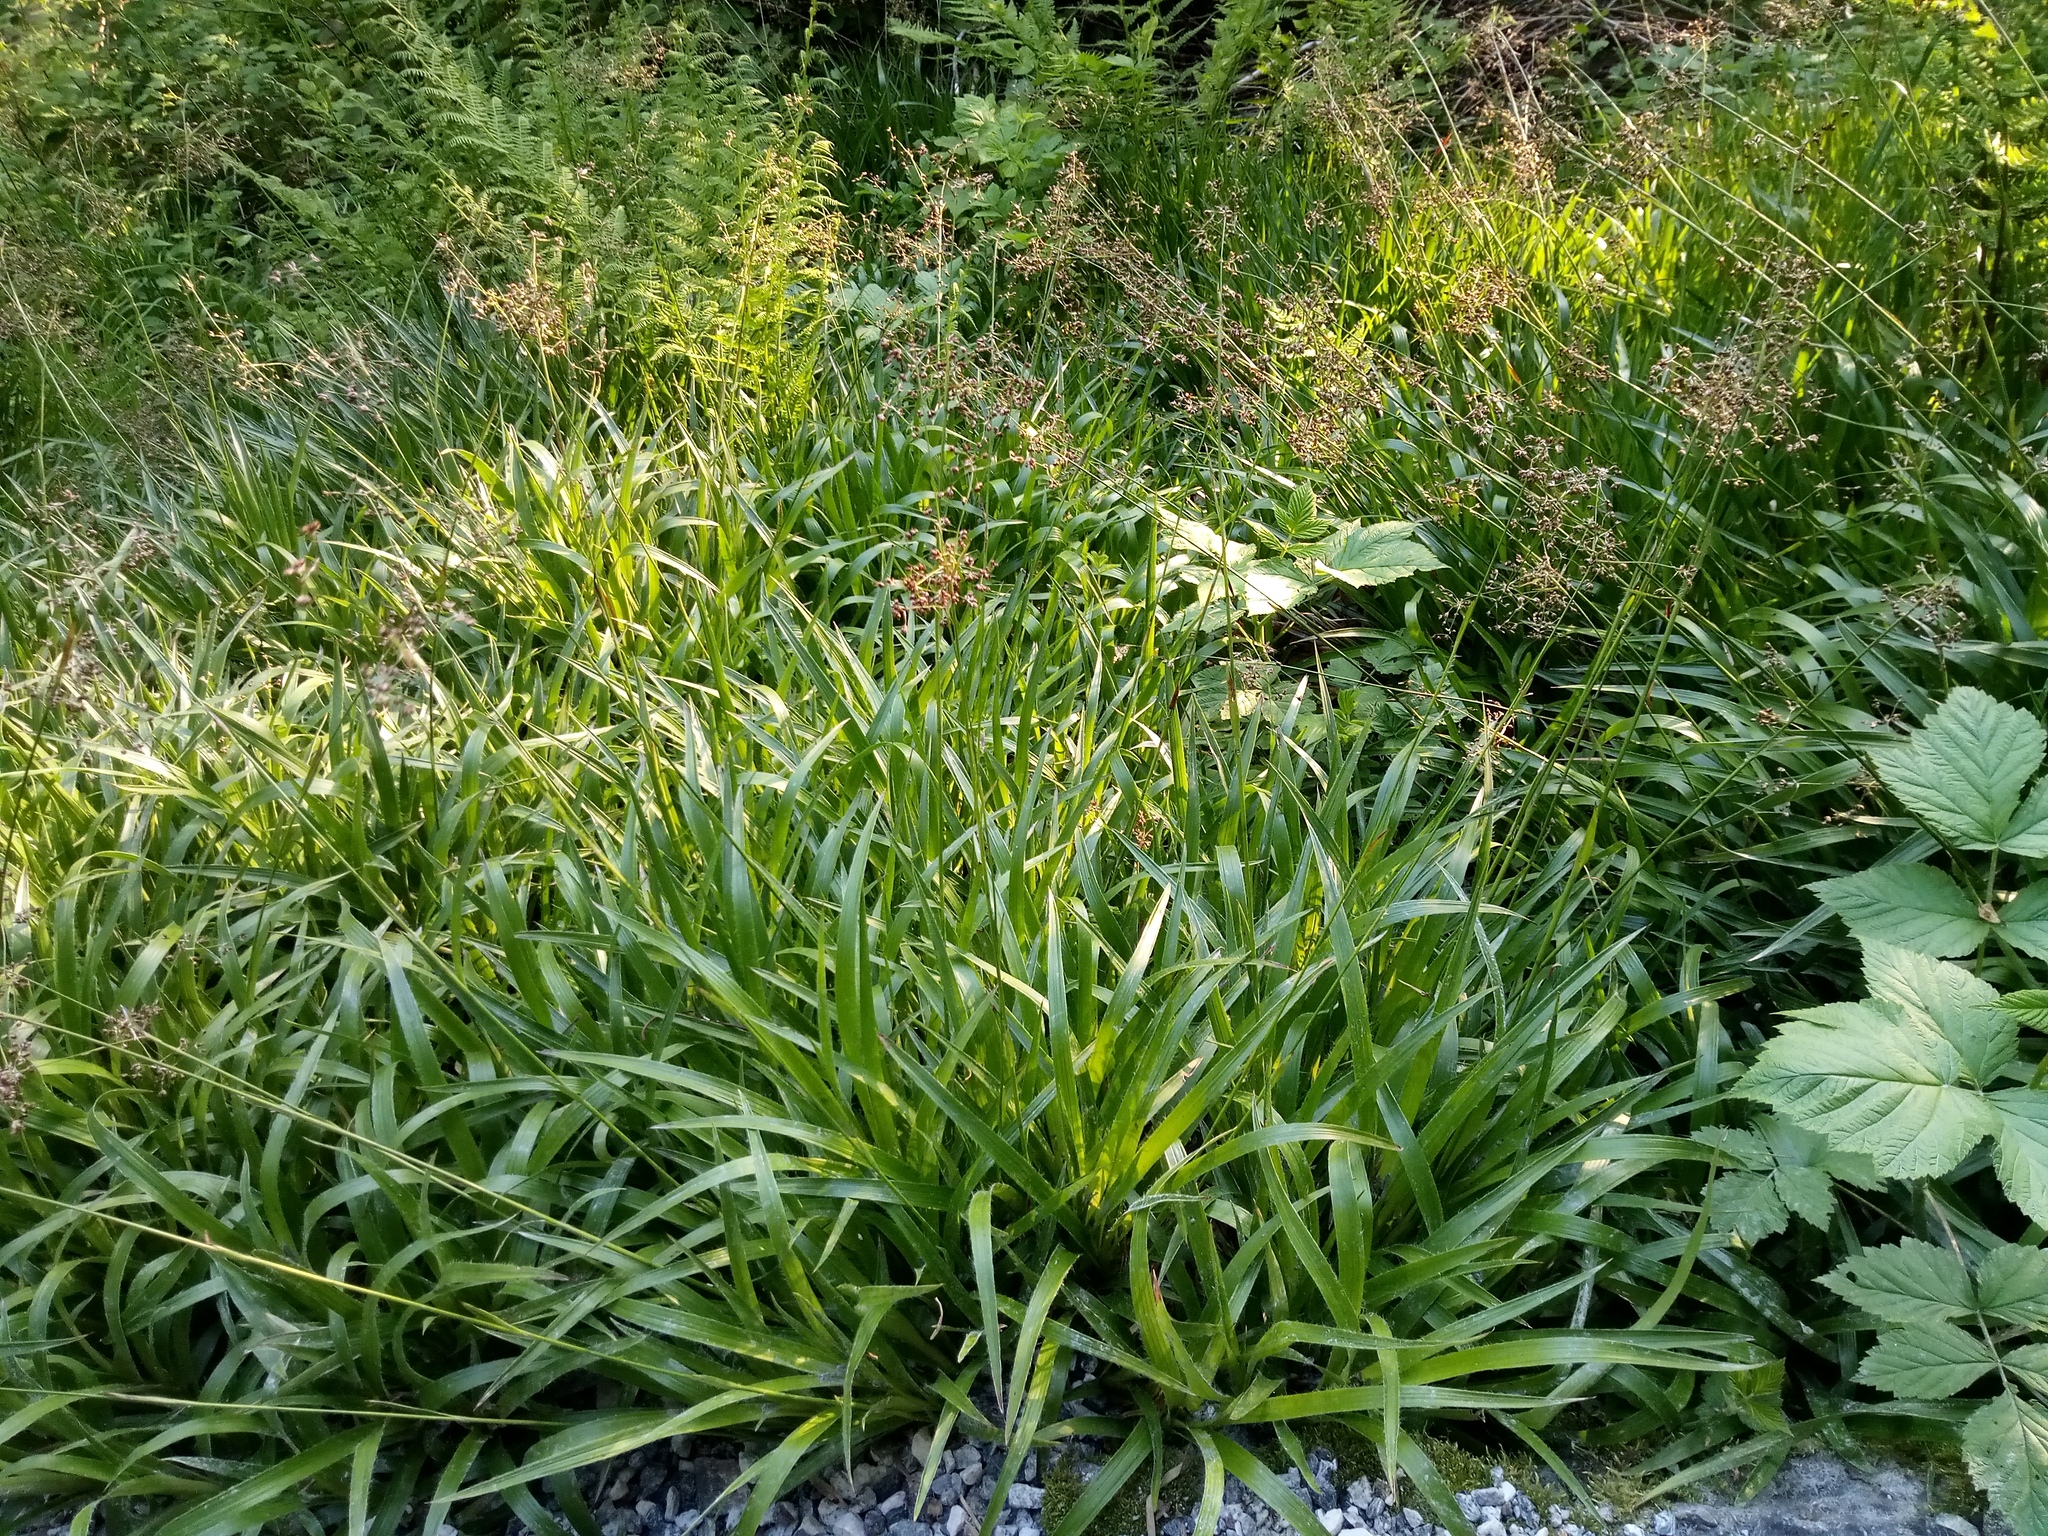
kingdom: Plantae
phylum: Tracheophyta
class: Liliopsida
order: Poales
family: Juncaceae
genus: Luzula
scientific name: Luzula sylvatica
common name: Great wood-rush
